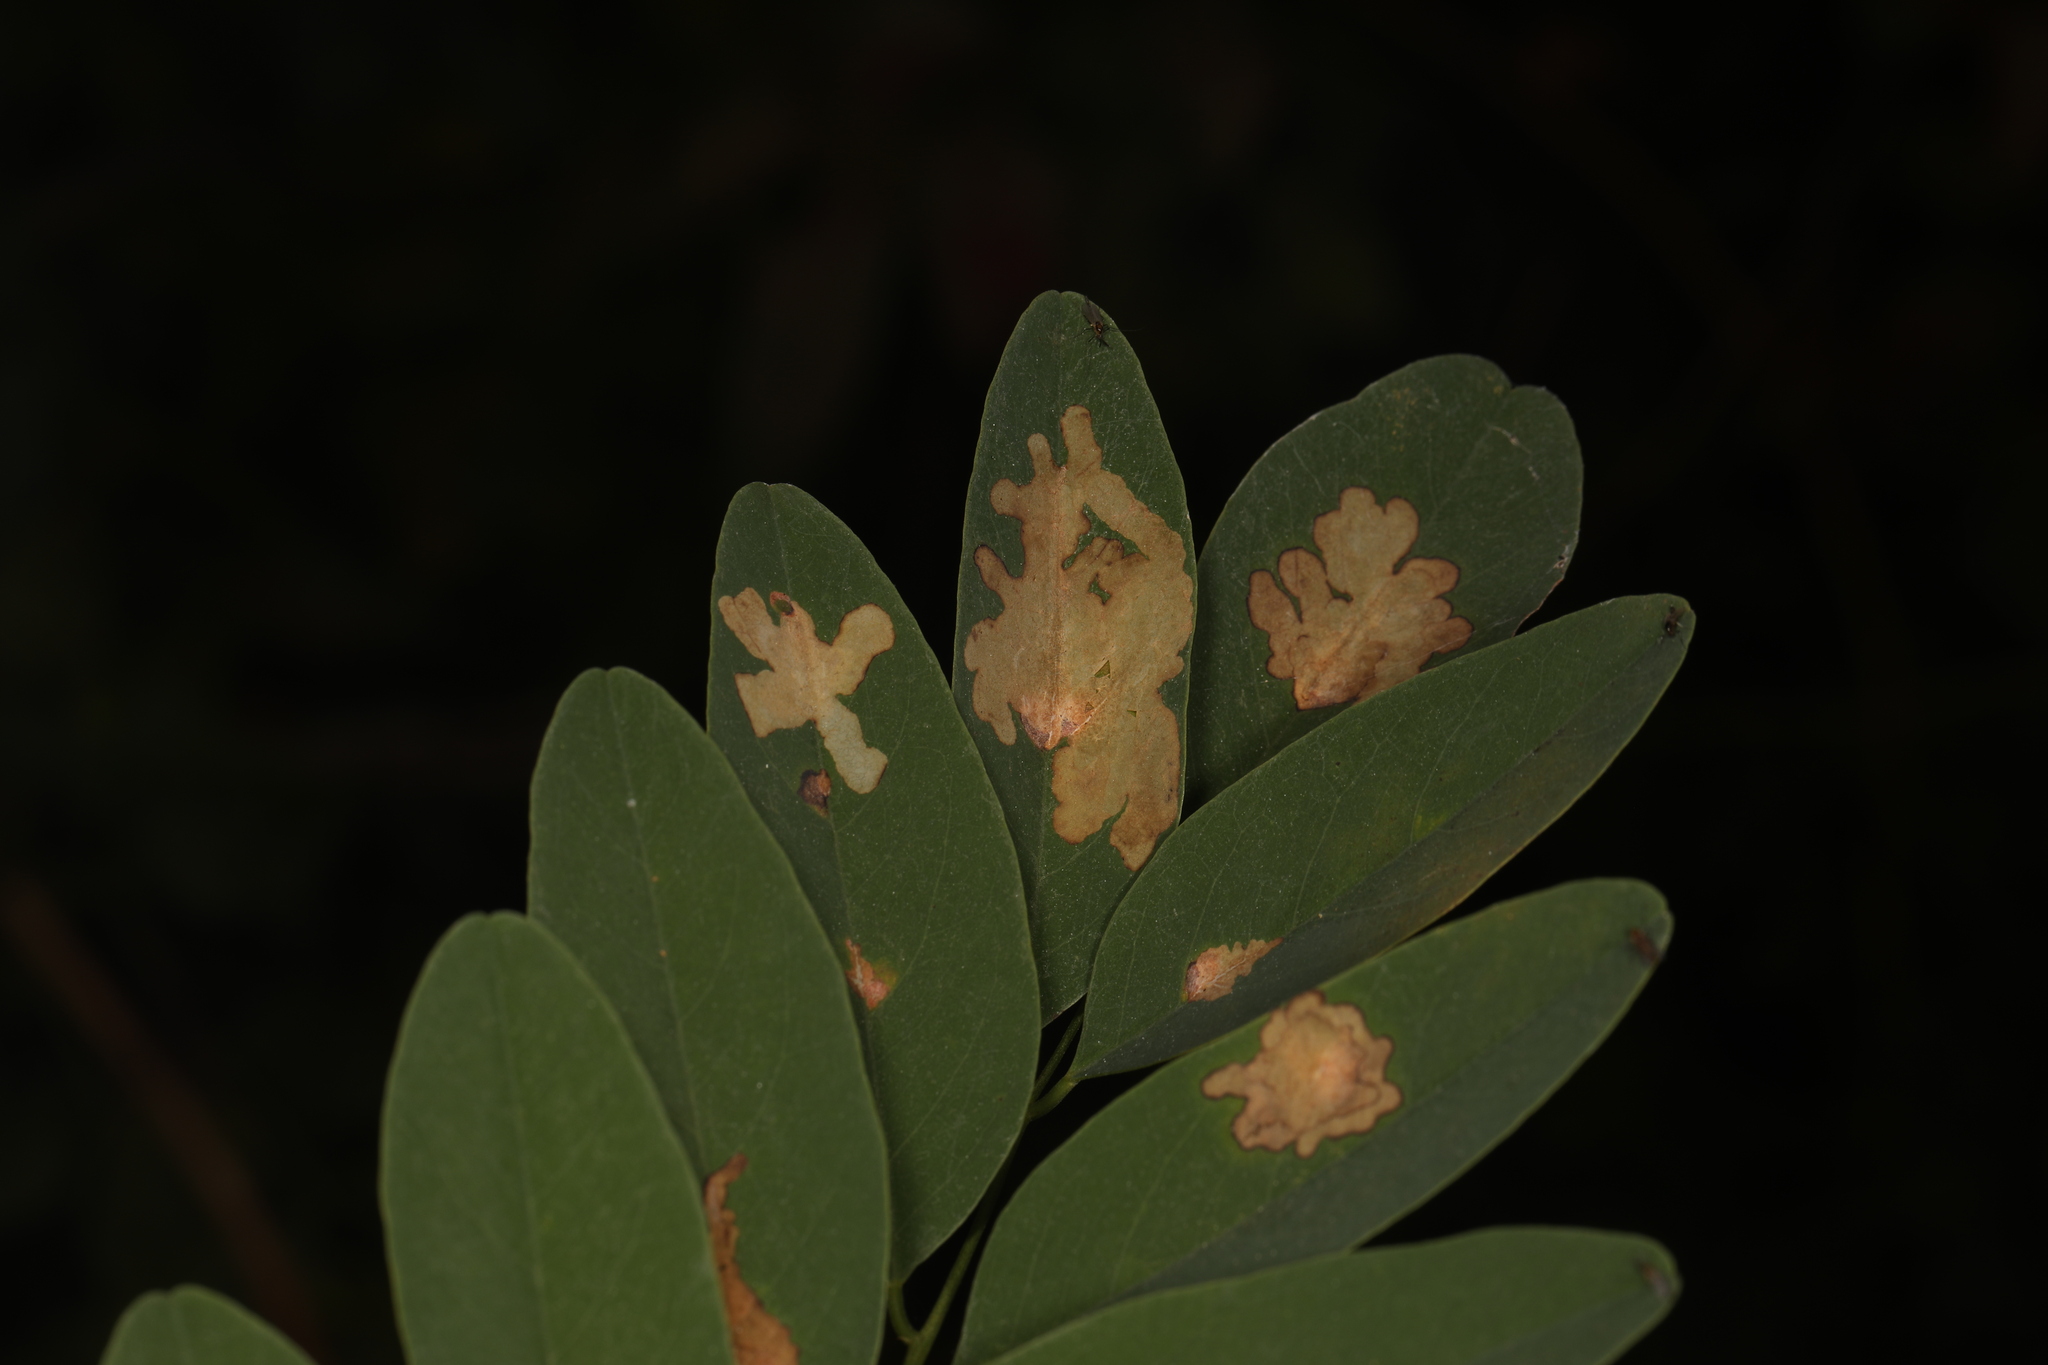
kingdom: Animalia
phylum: Arthropoda
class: Insecta
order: Lepidoptera
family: Gracillariidae
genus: Parectopa
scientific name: Parectopa robiniella
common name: Locust digitate leafminer
